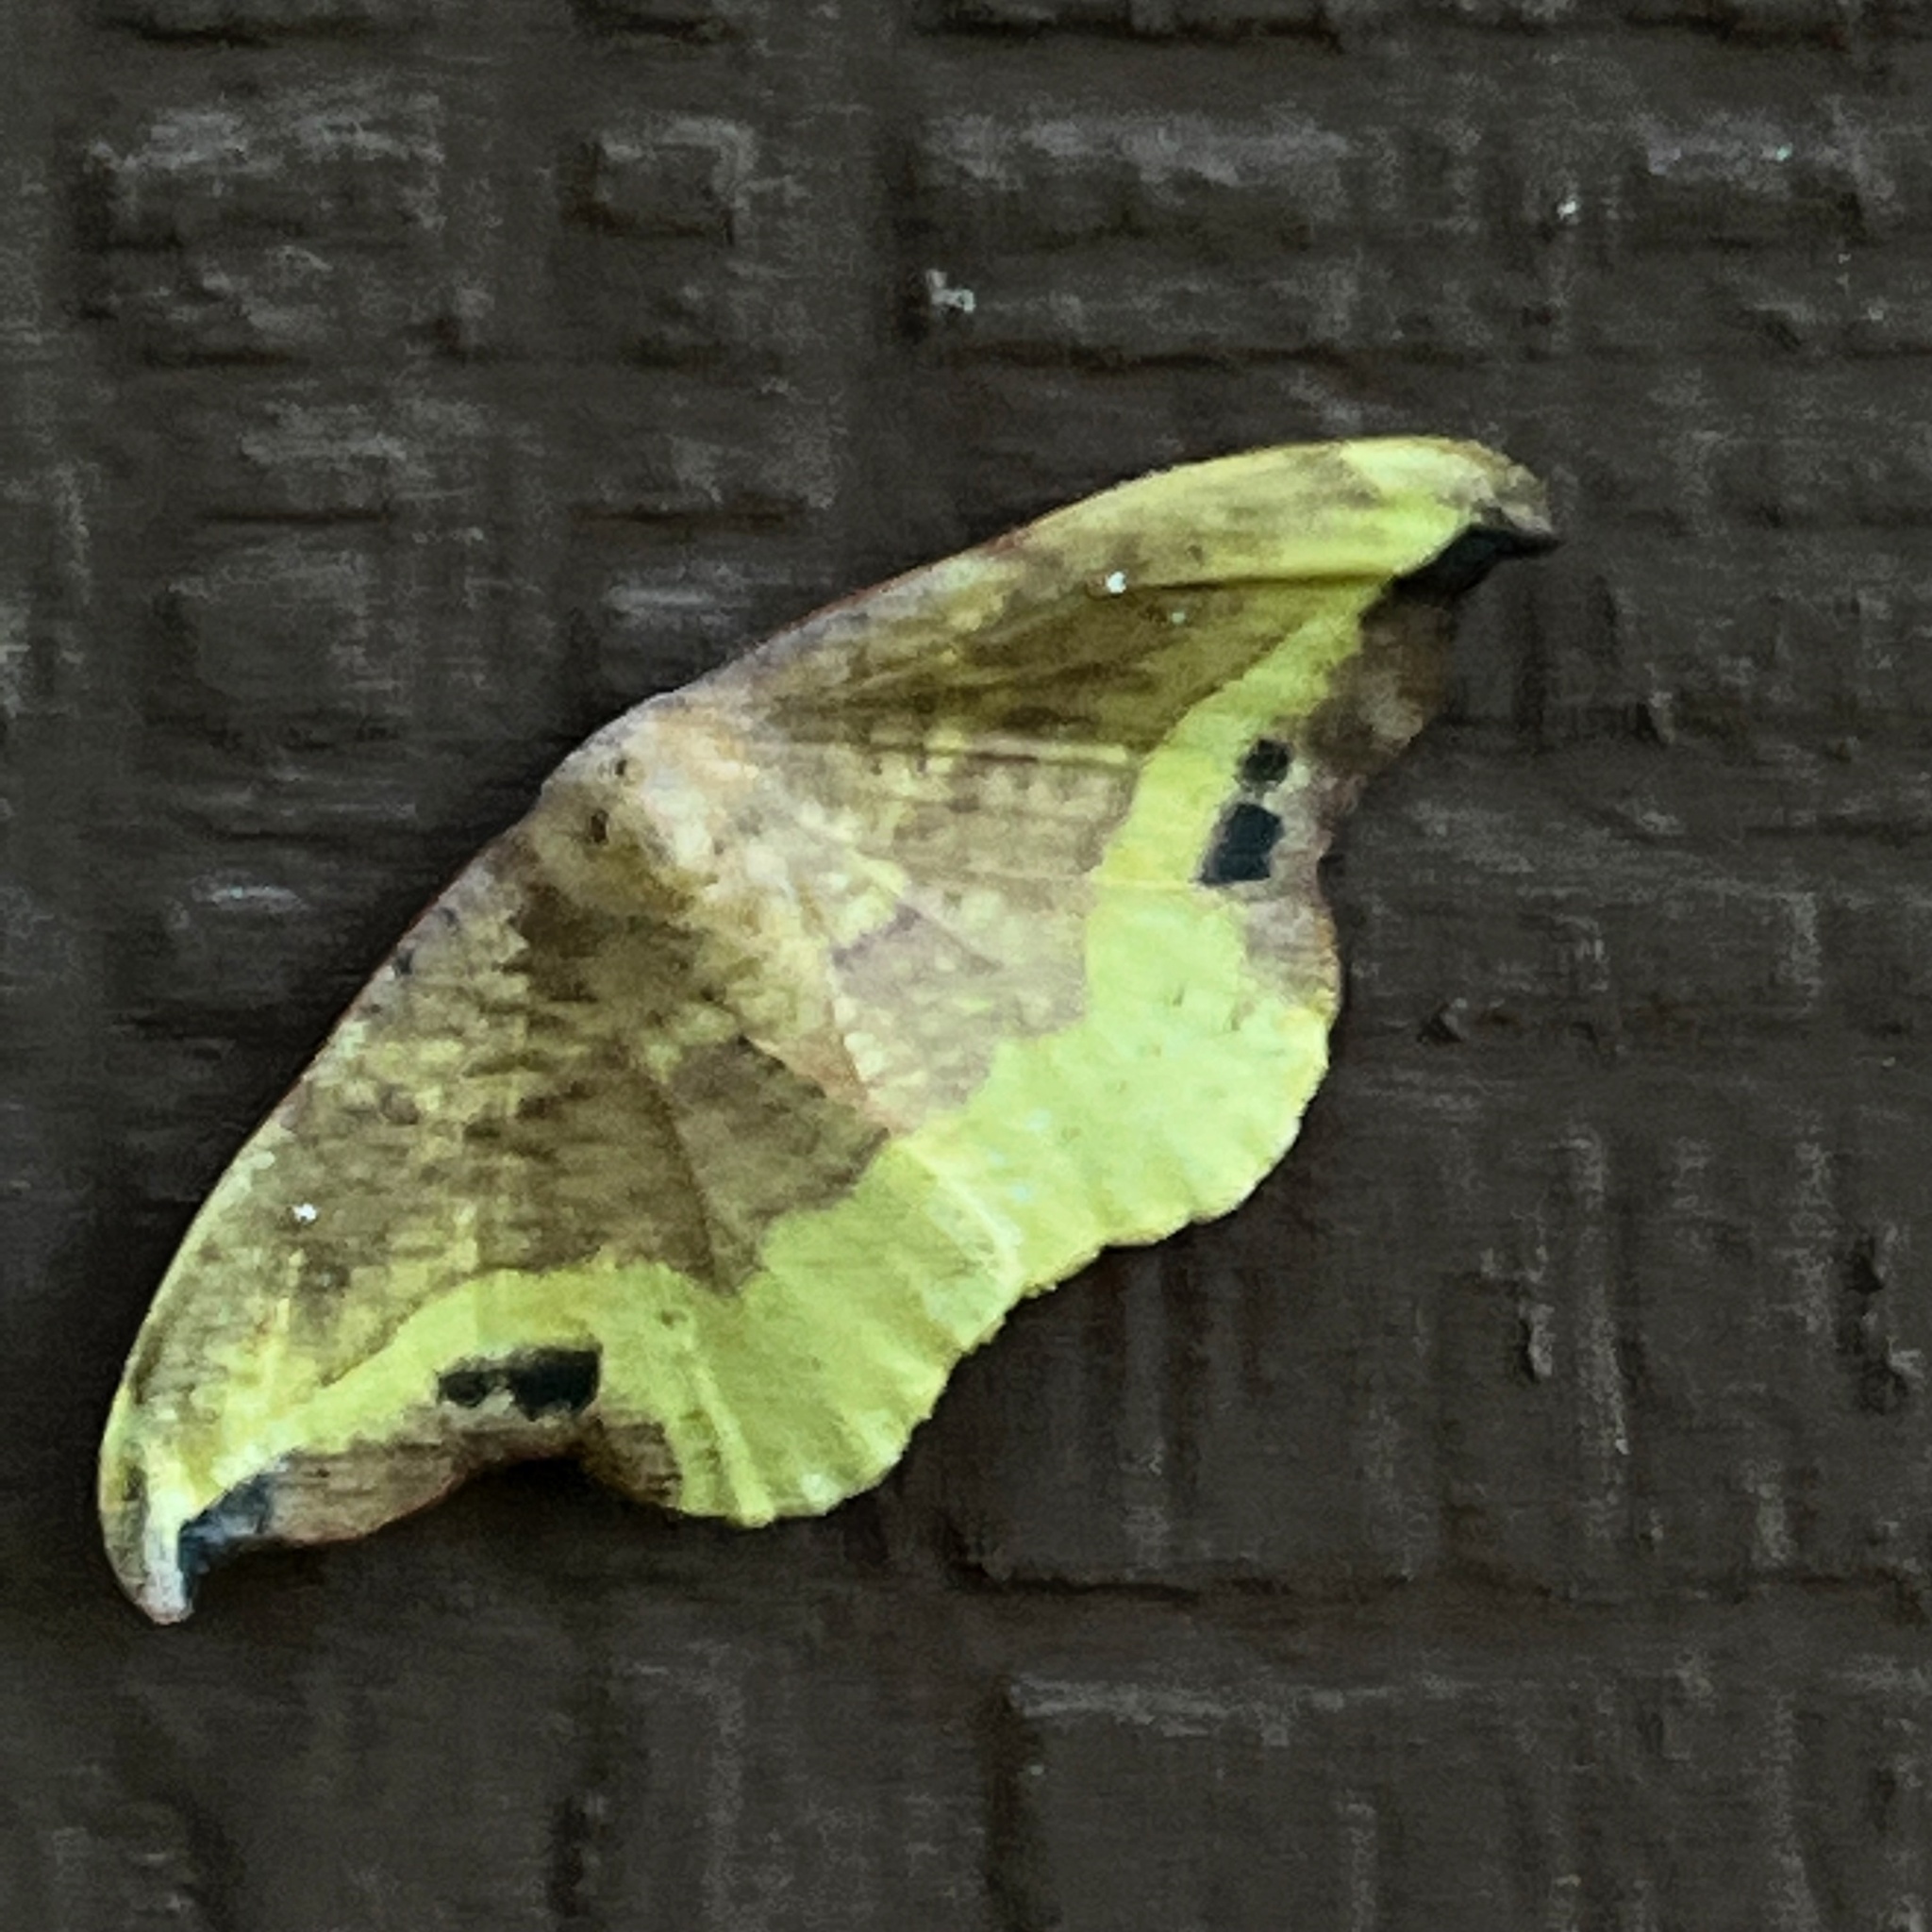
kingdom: Animalia
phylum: Arthropoda
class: Insecta
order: Lepidoptera
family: Drepanidae
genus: Oreta
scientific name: Oreta rosea
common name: Rose hooktip
